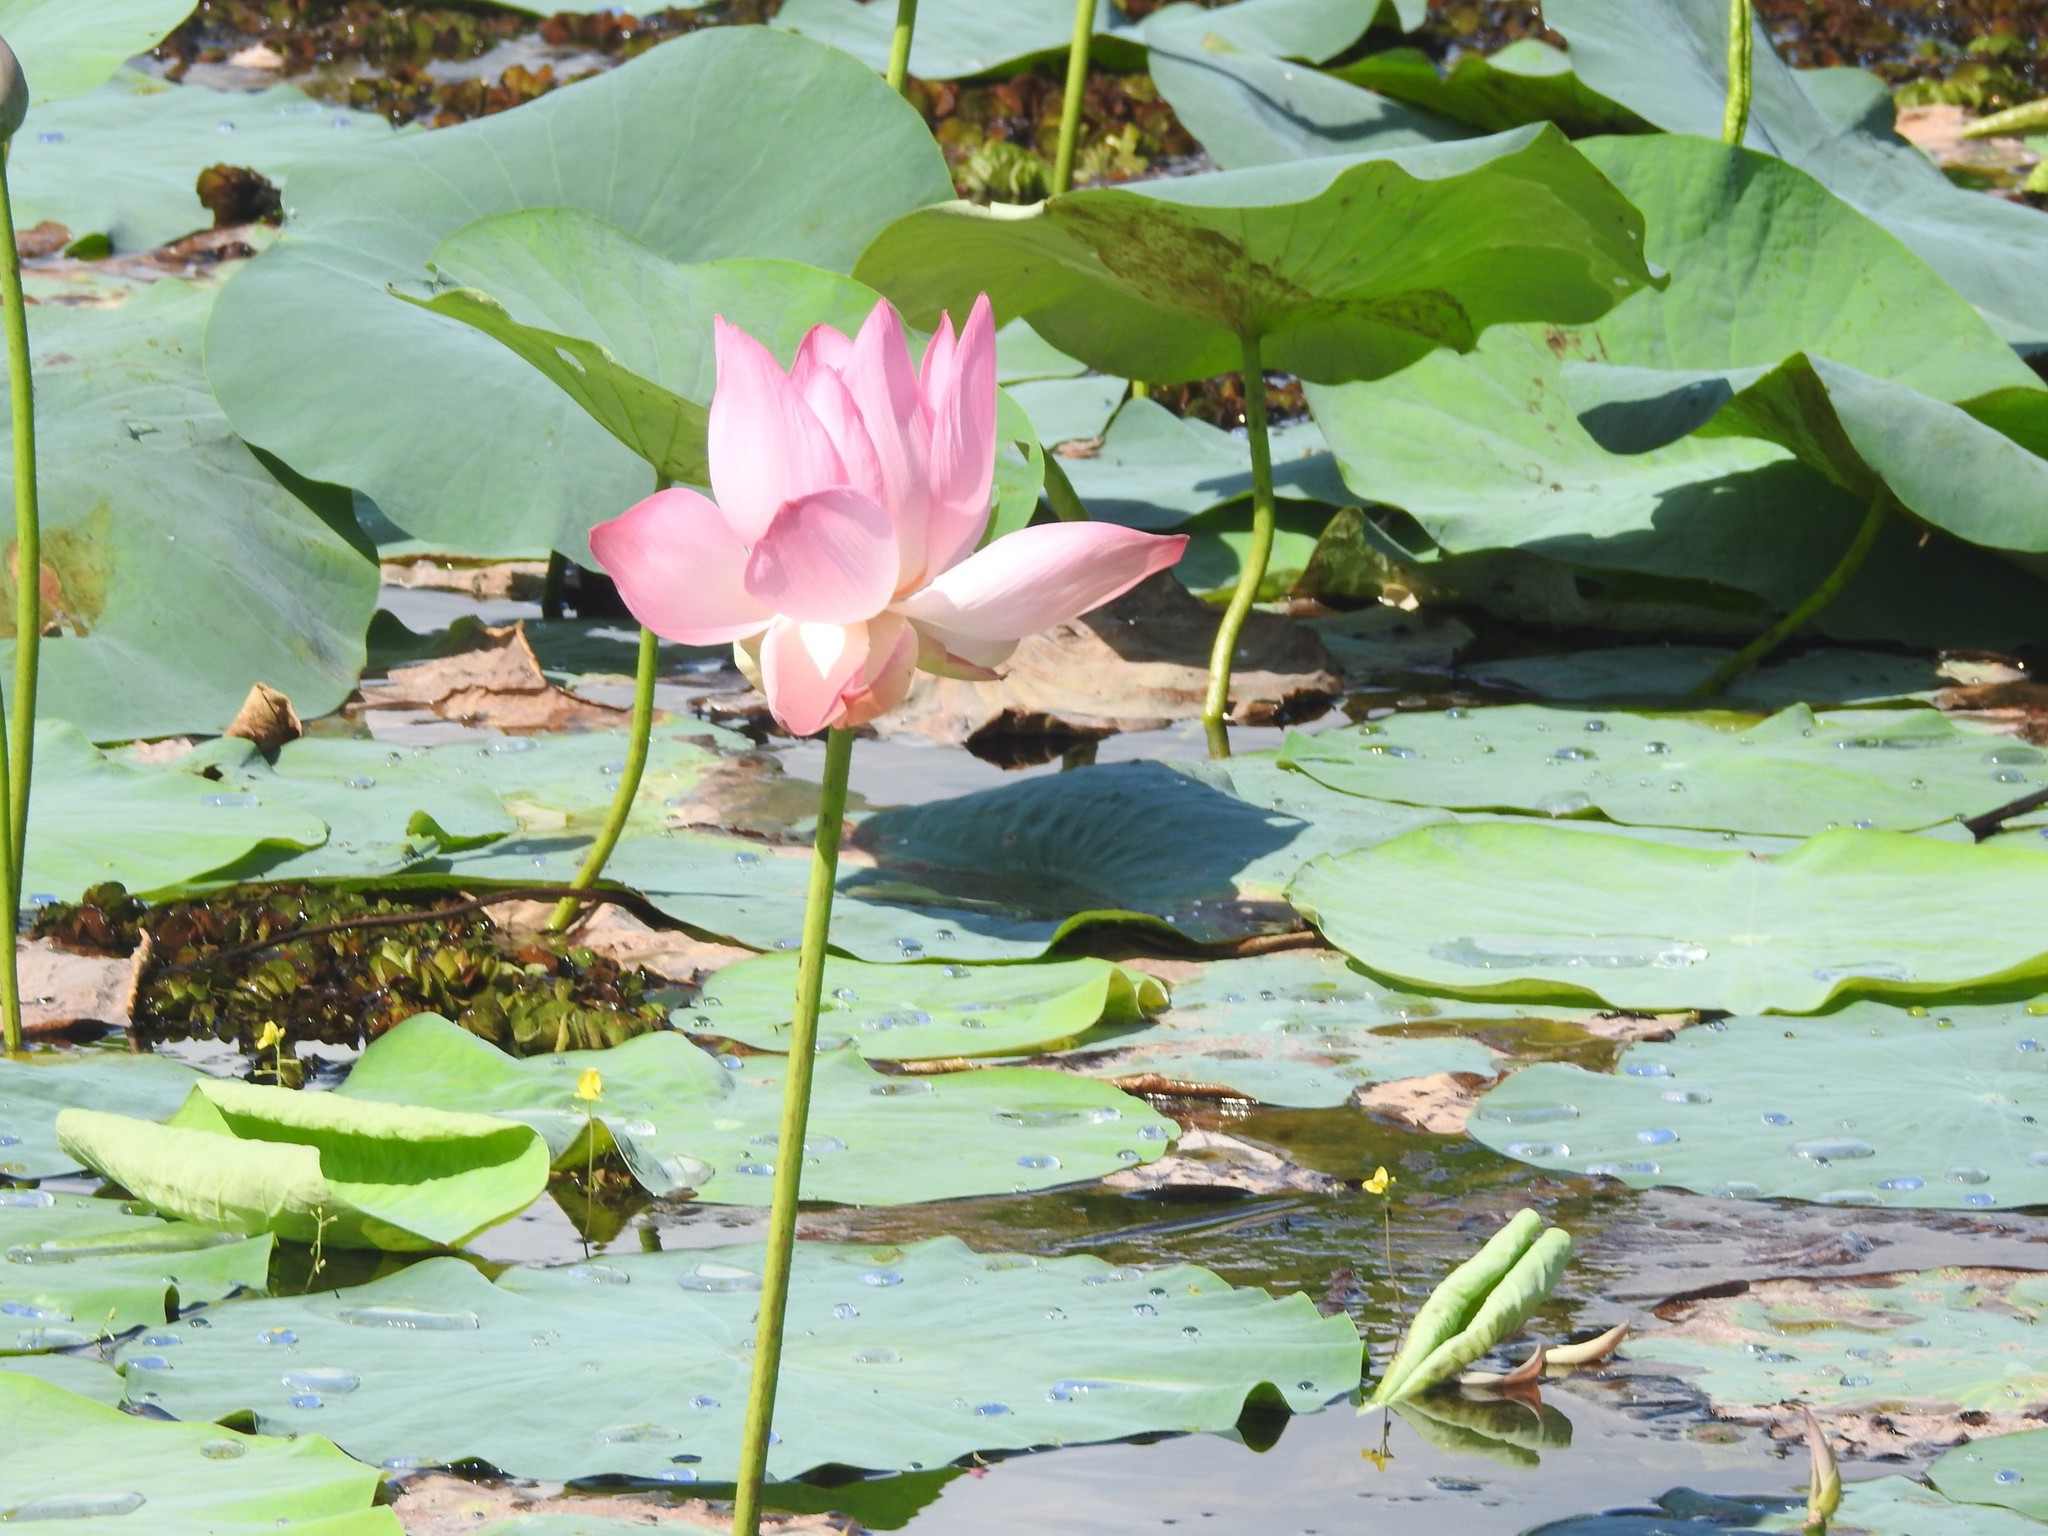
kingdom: Plantae
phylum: Tracheophyta
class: Magnoliopsida
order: Proteales
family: Nelumbonaceae
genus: Nelumbo
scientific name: Nelumbo nucifera
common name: Sacred lotus
